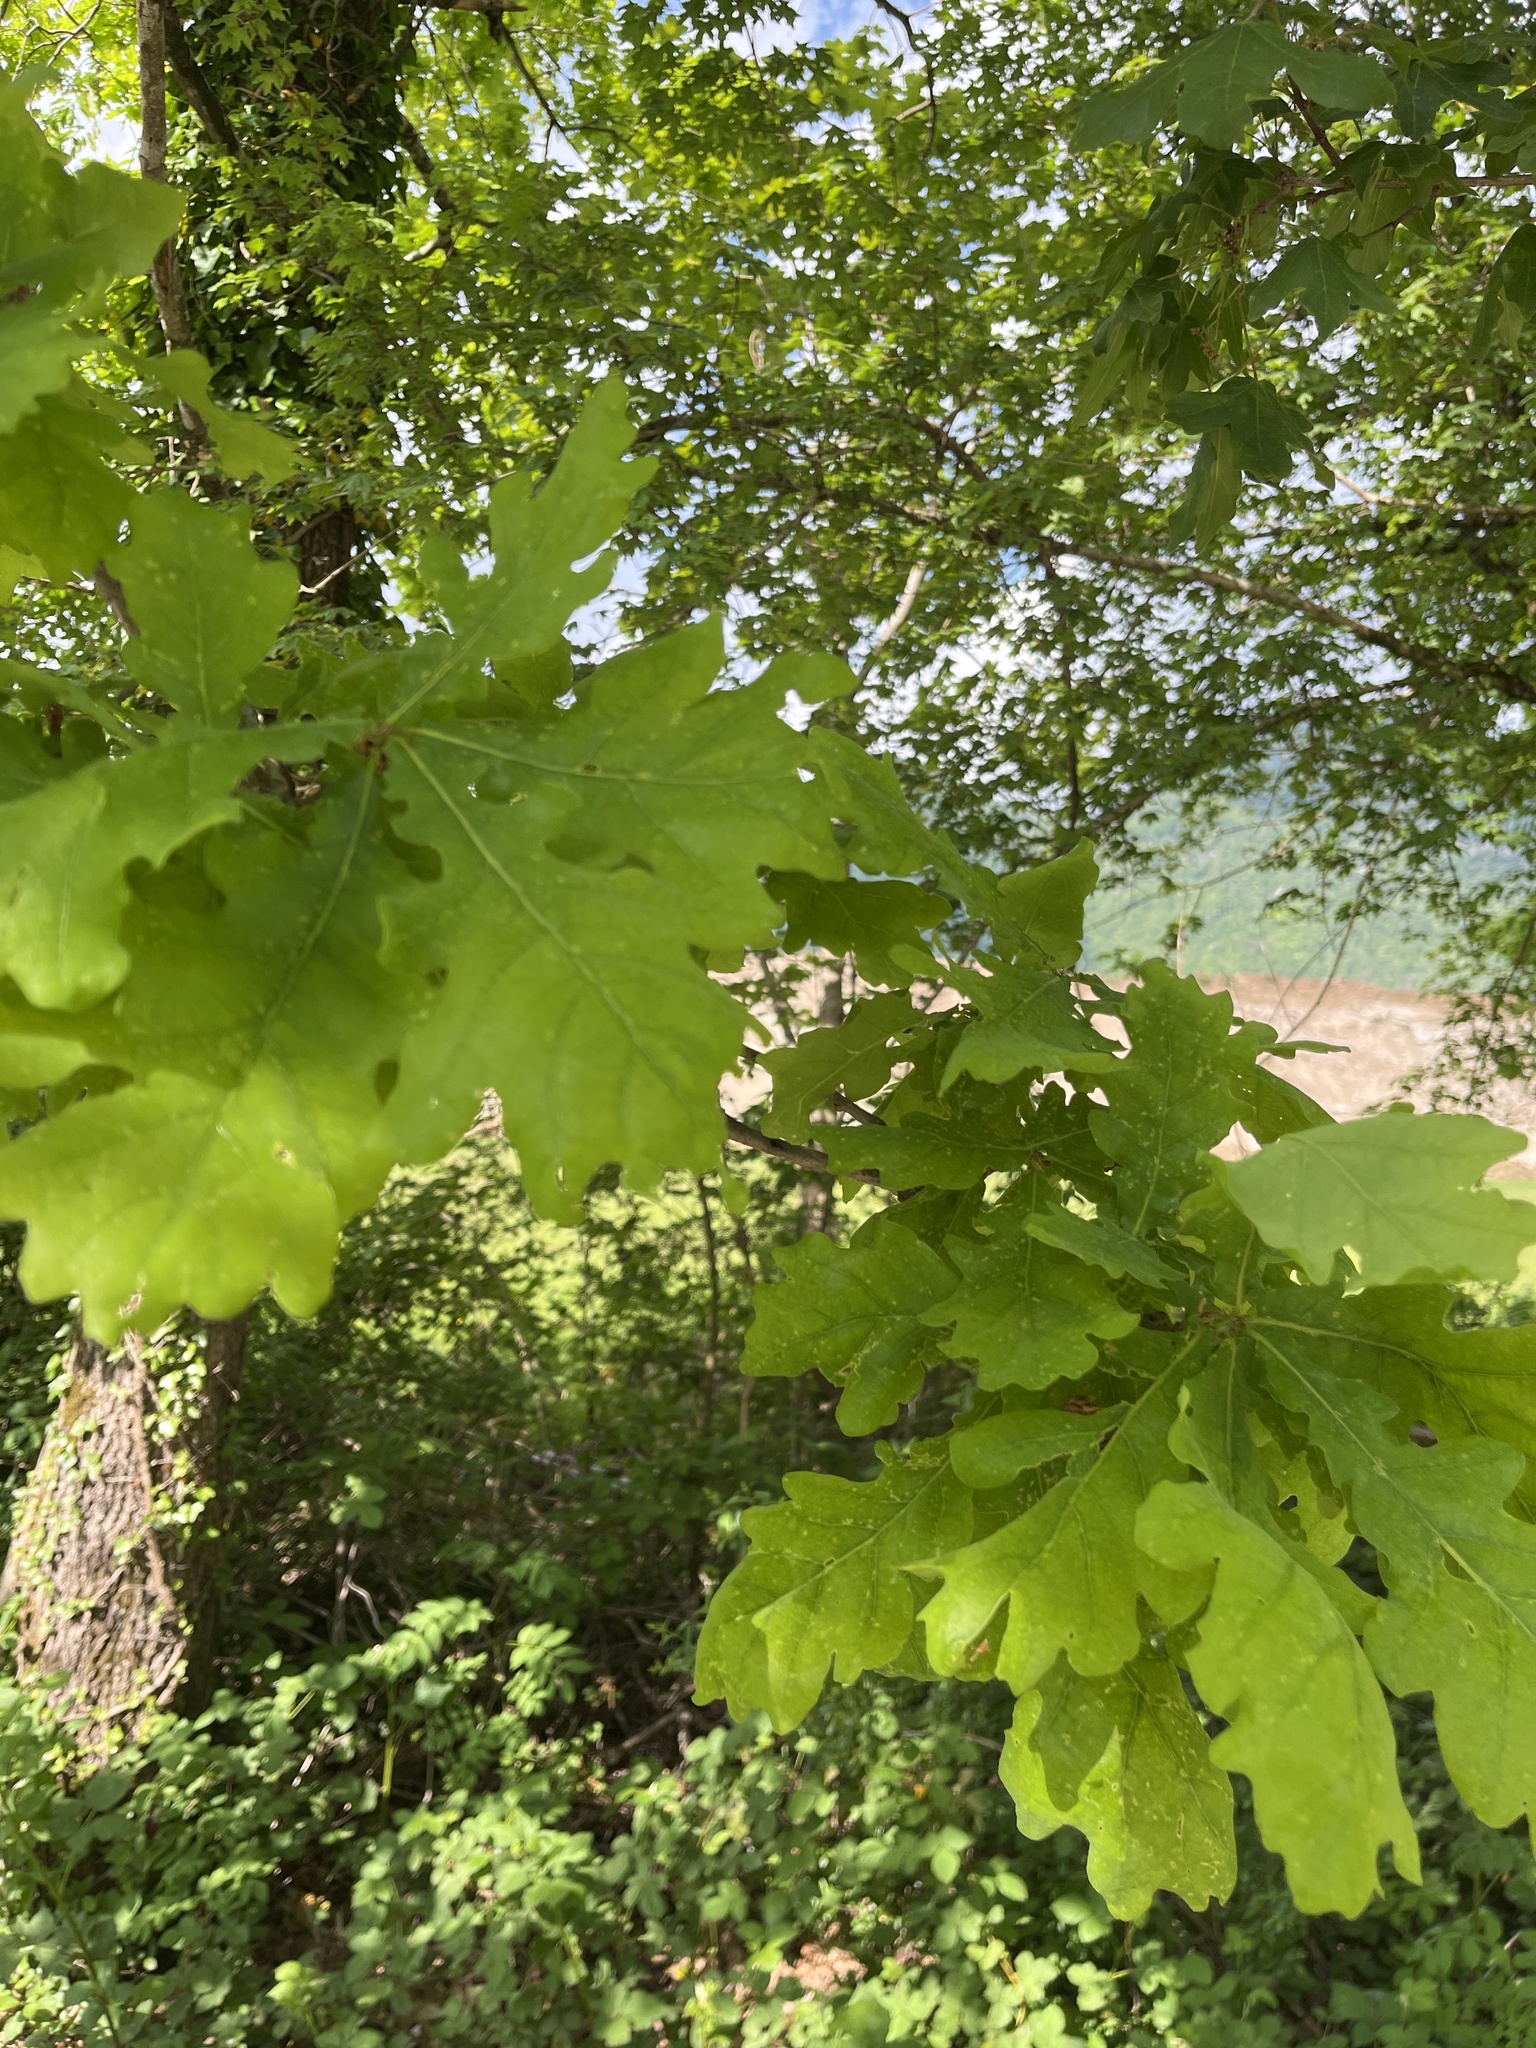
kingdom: Plantae
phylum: Tracheophyta
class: Magnoliopsida
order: Fagales
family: Fagaceae
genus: Quercus
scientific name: Quercus robur
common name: Pedunculate oak
